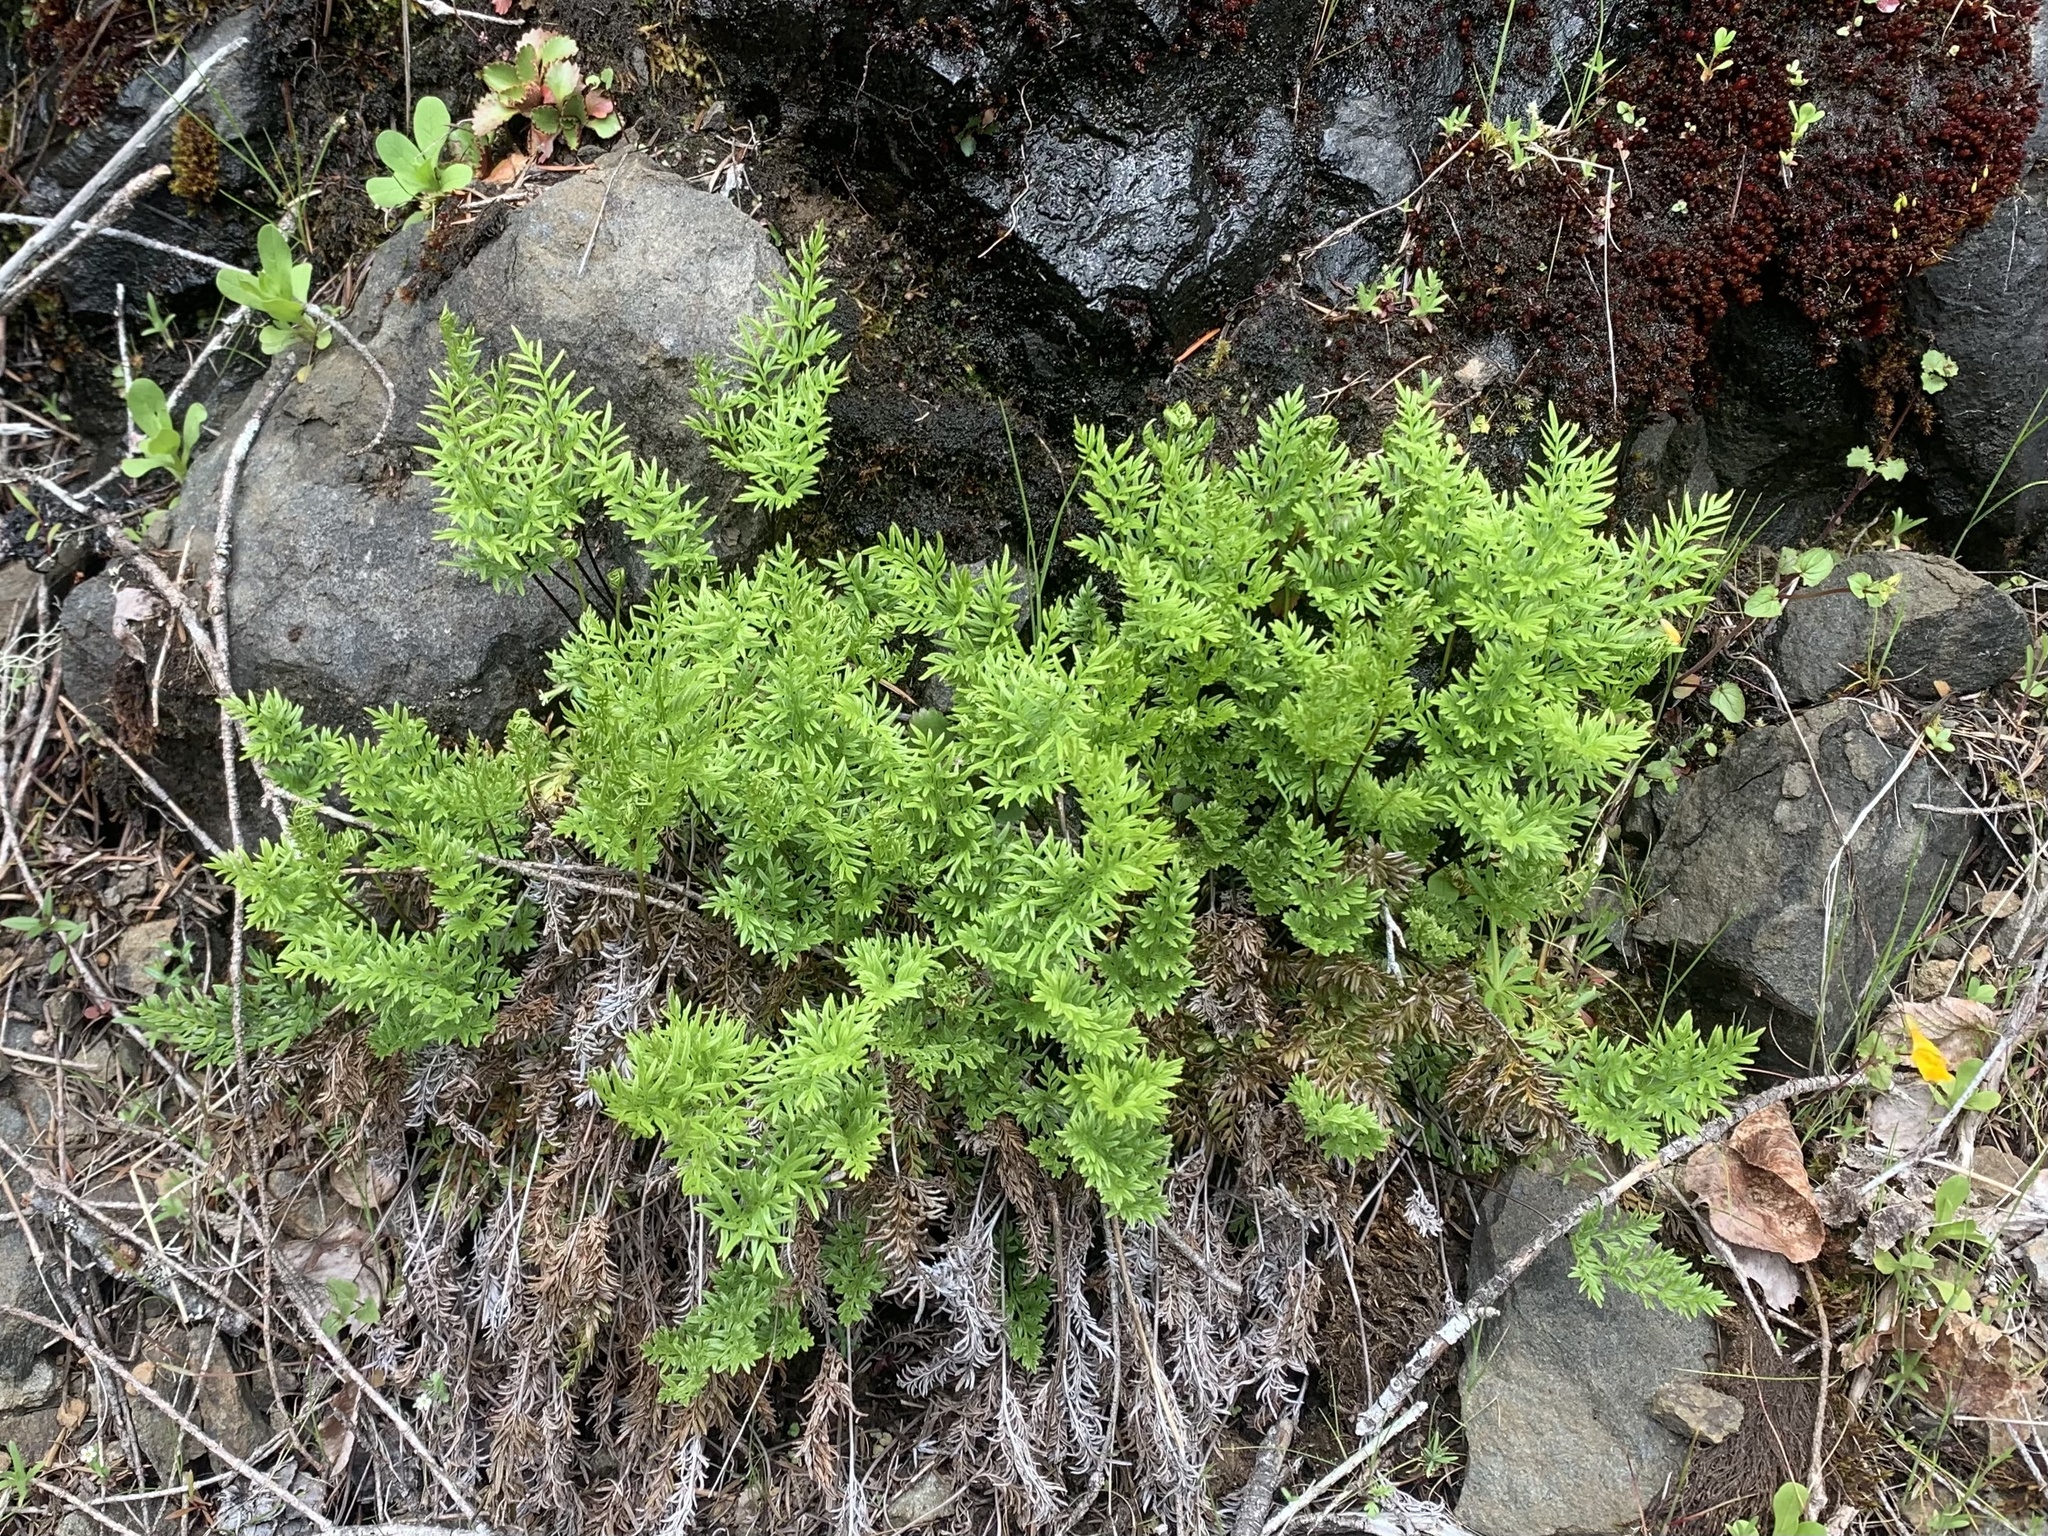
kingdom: Plantae
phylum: Tracheophyta
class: Polypodiopsida
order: Polypodiales
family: Pteridaceae
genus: Aspidotis
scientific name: Aspidotis densa
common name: Indian's dream
